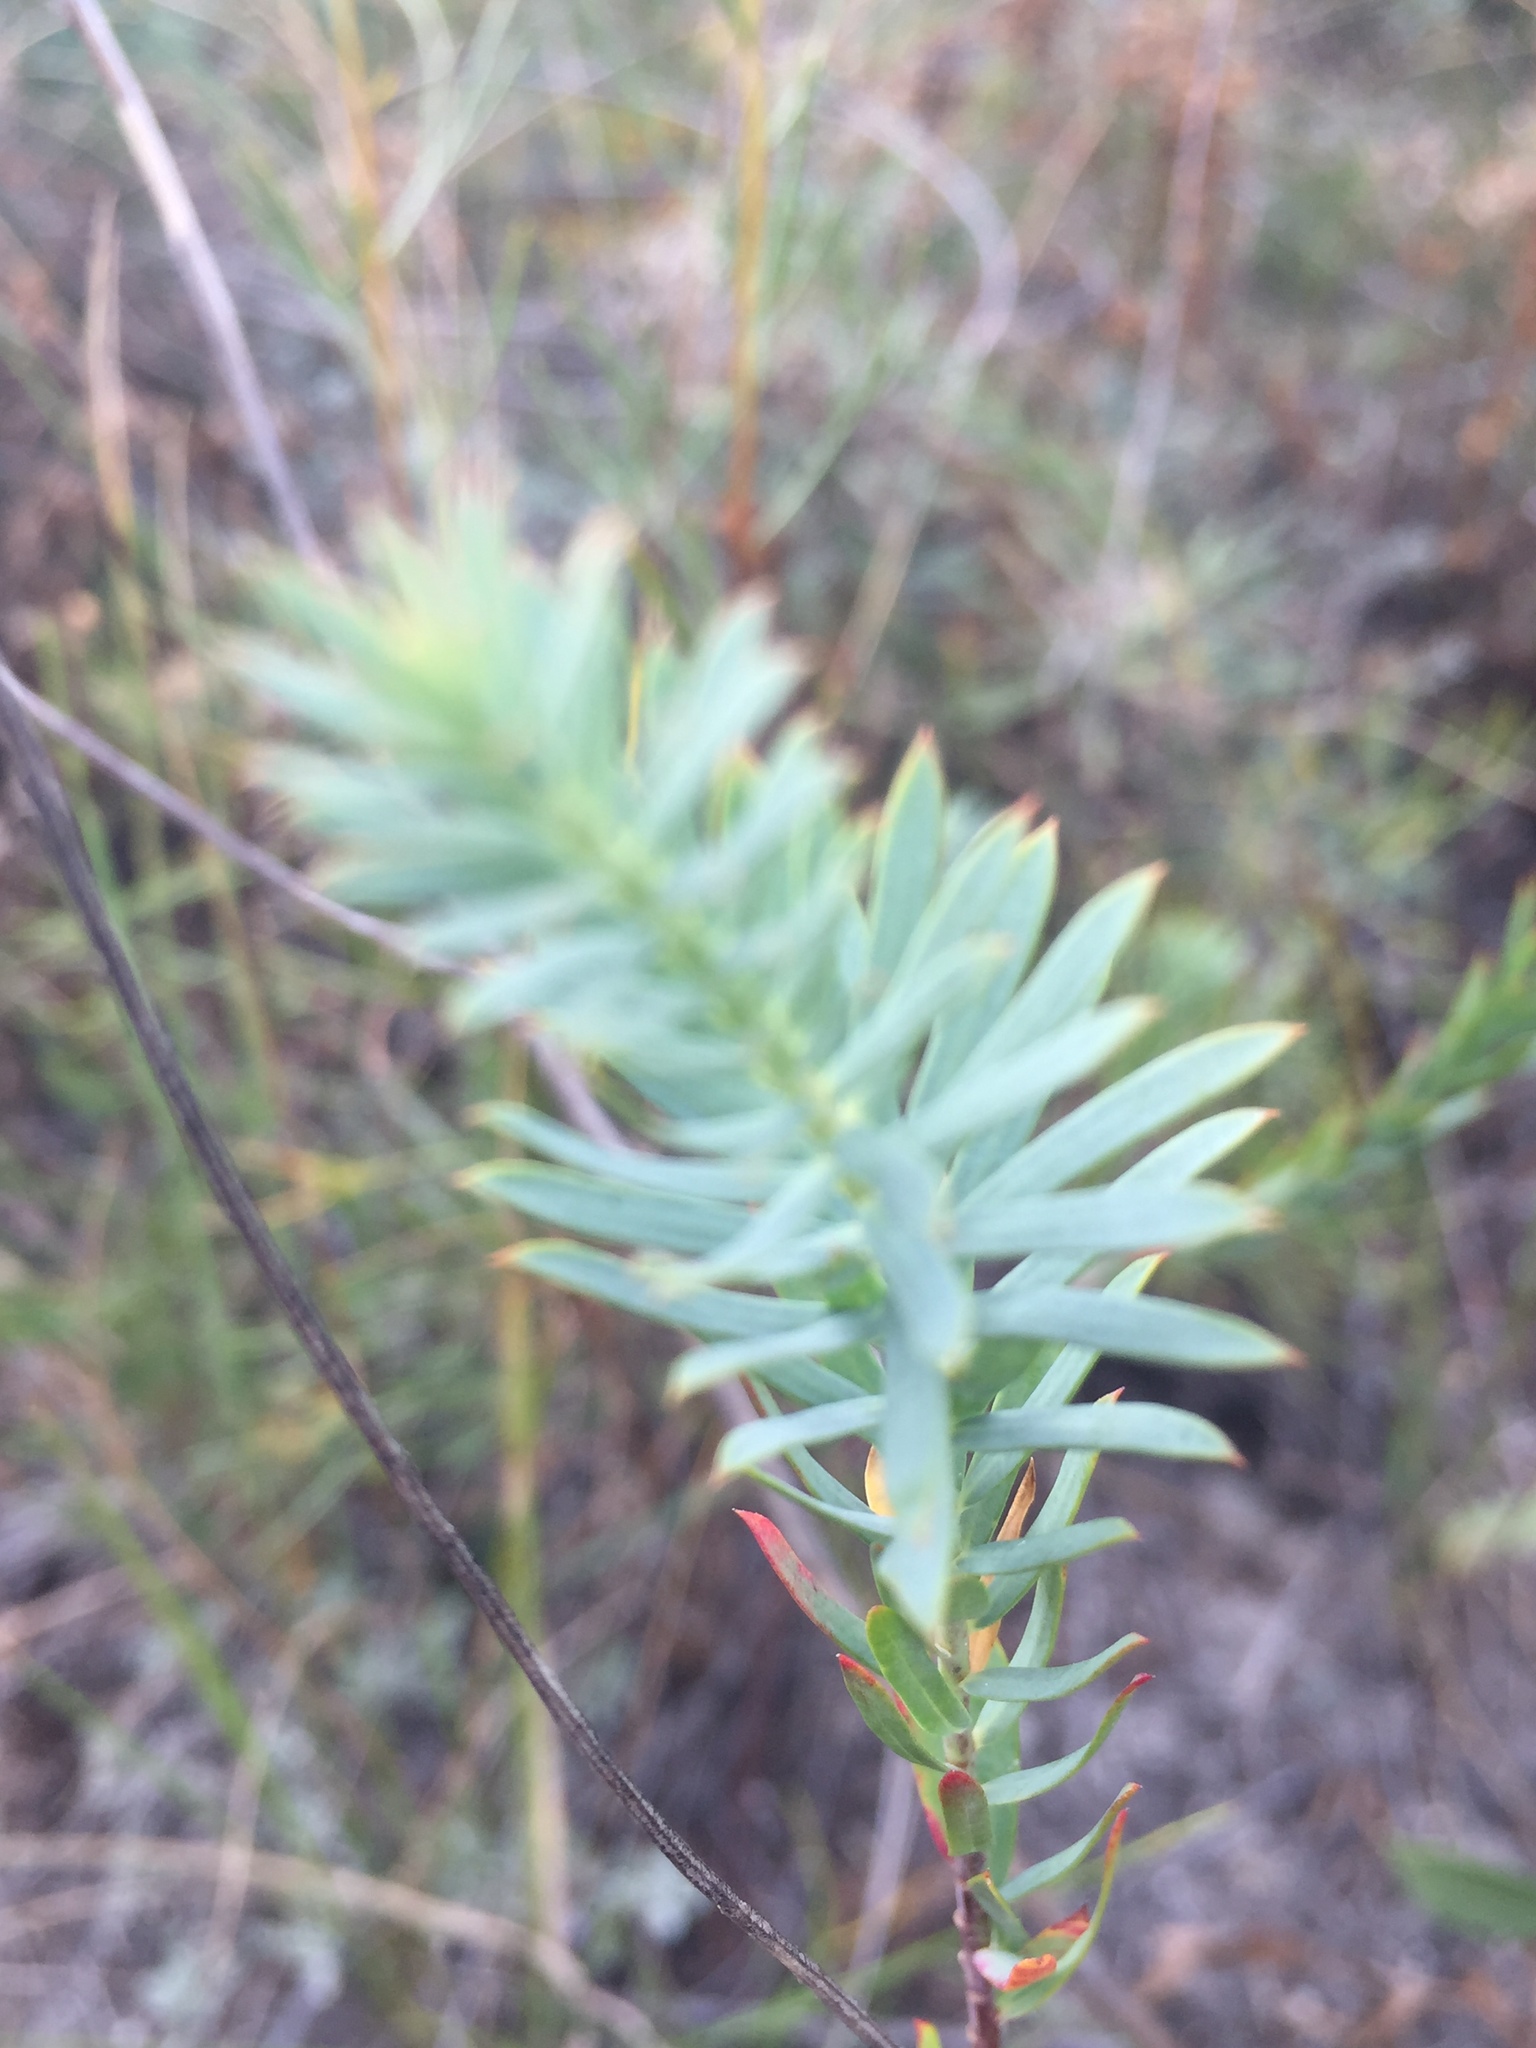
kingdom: Plantae
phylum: Tracheophyta
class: Magnoliopsida
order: Malpighiales
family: Euphorbiaceae
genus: Euphorbia
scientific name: Euphorbia seguieriana
